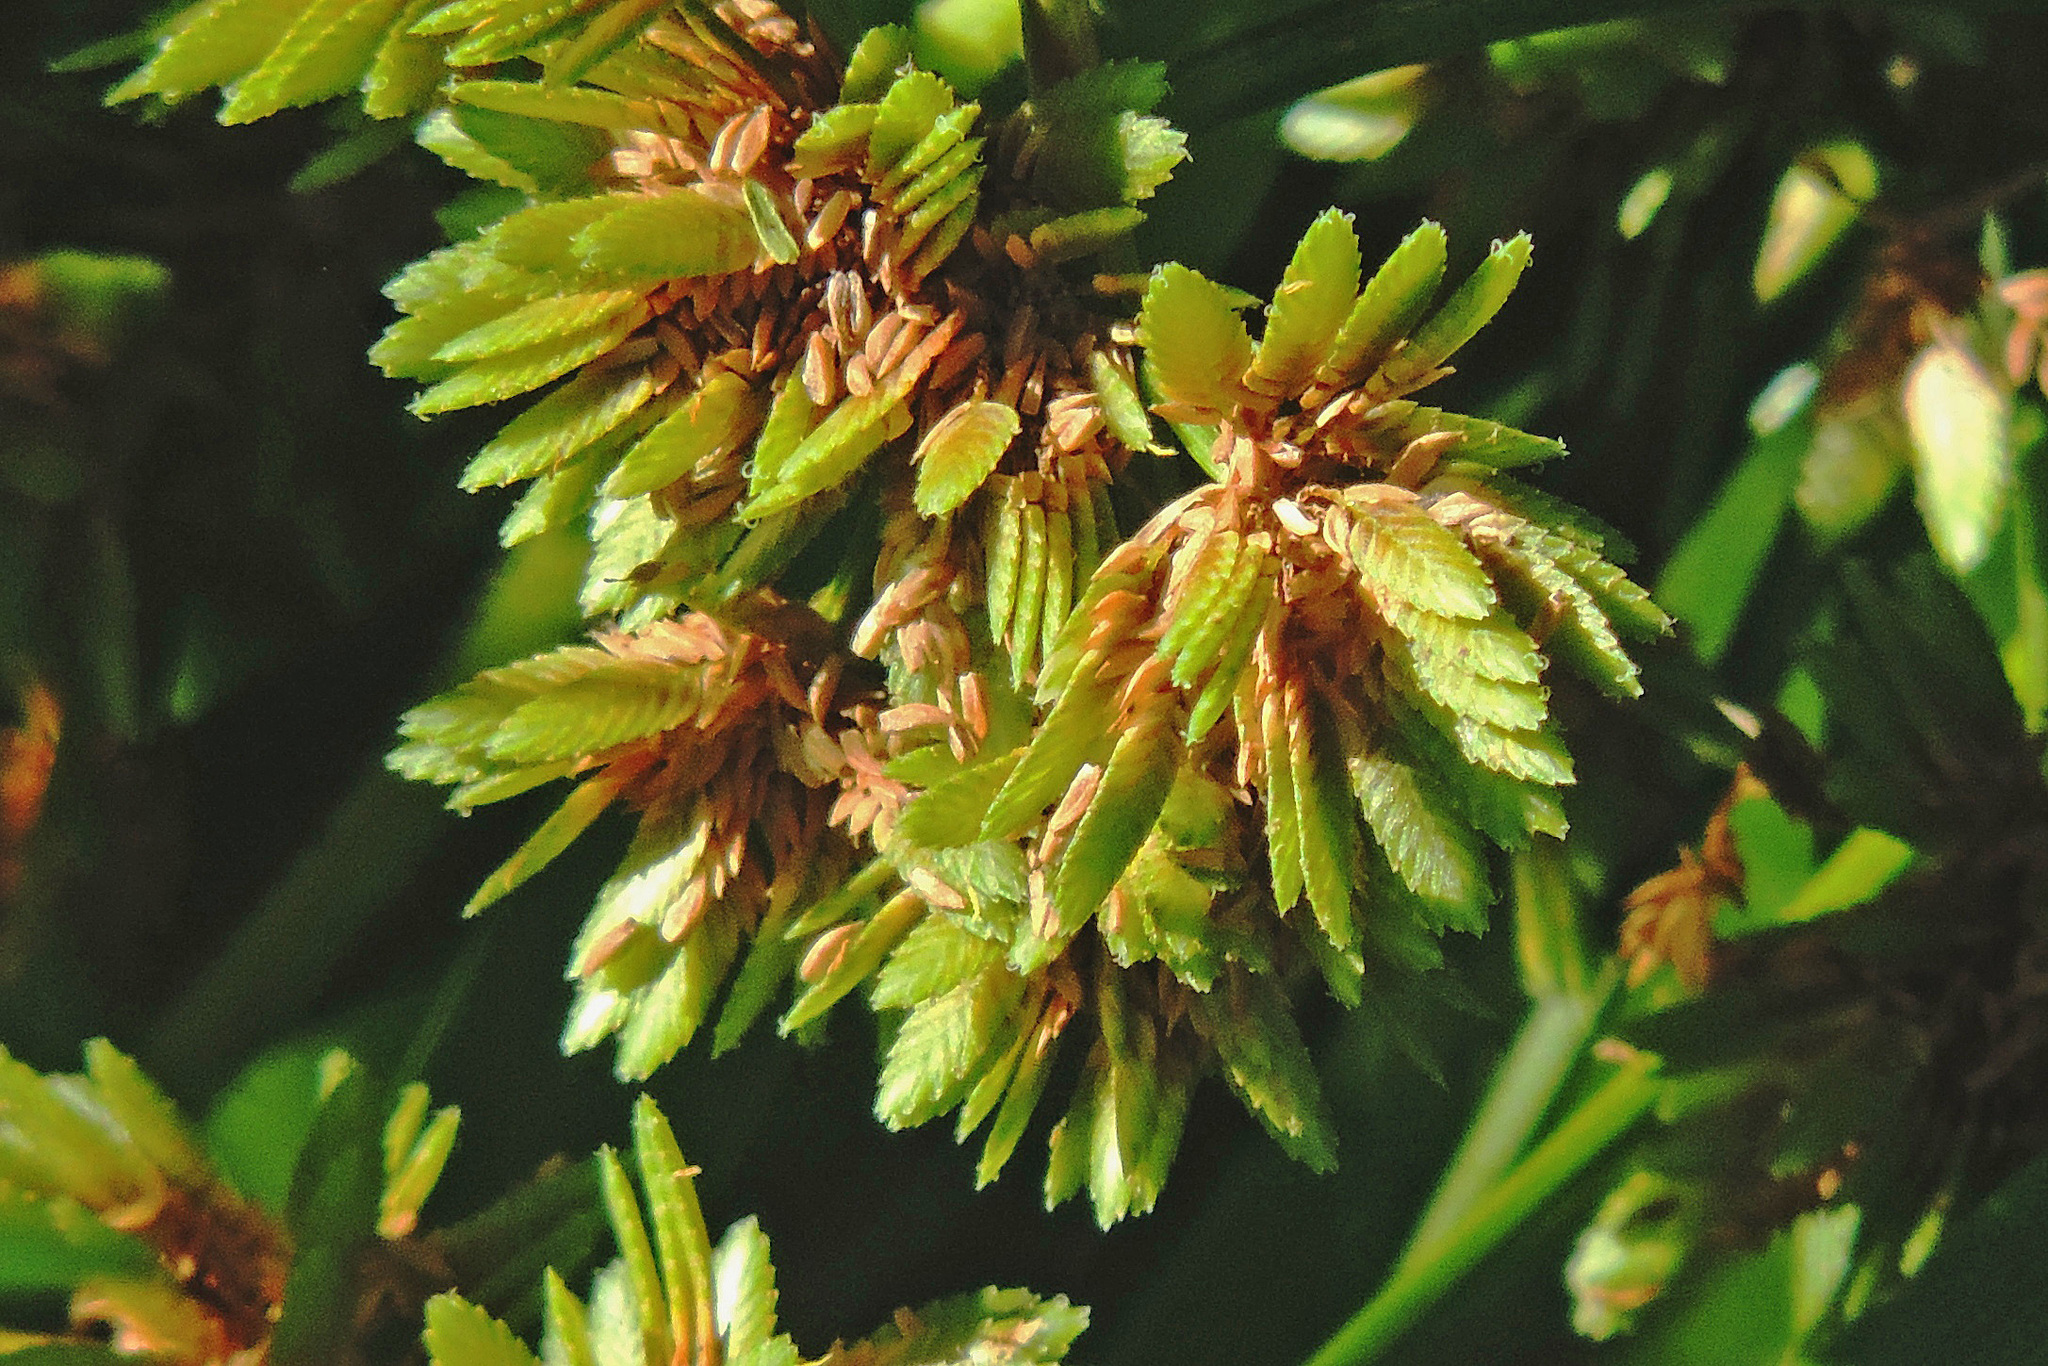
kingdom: Plantae
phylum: Tracheophyta
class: Liliopsida
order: Poales
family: Cyperaceae
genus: Cyperus
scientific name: Cyperus eragrostis
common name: Tall flatsedge
